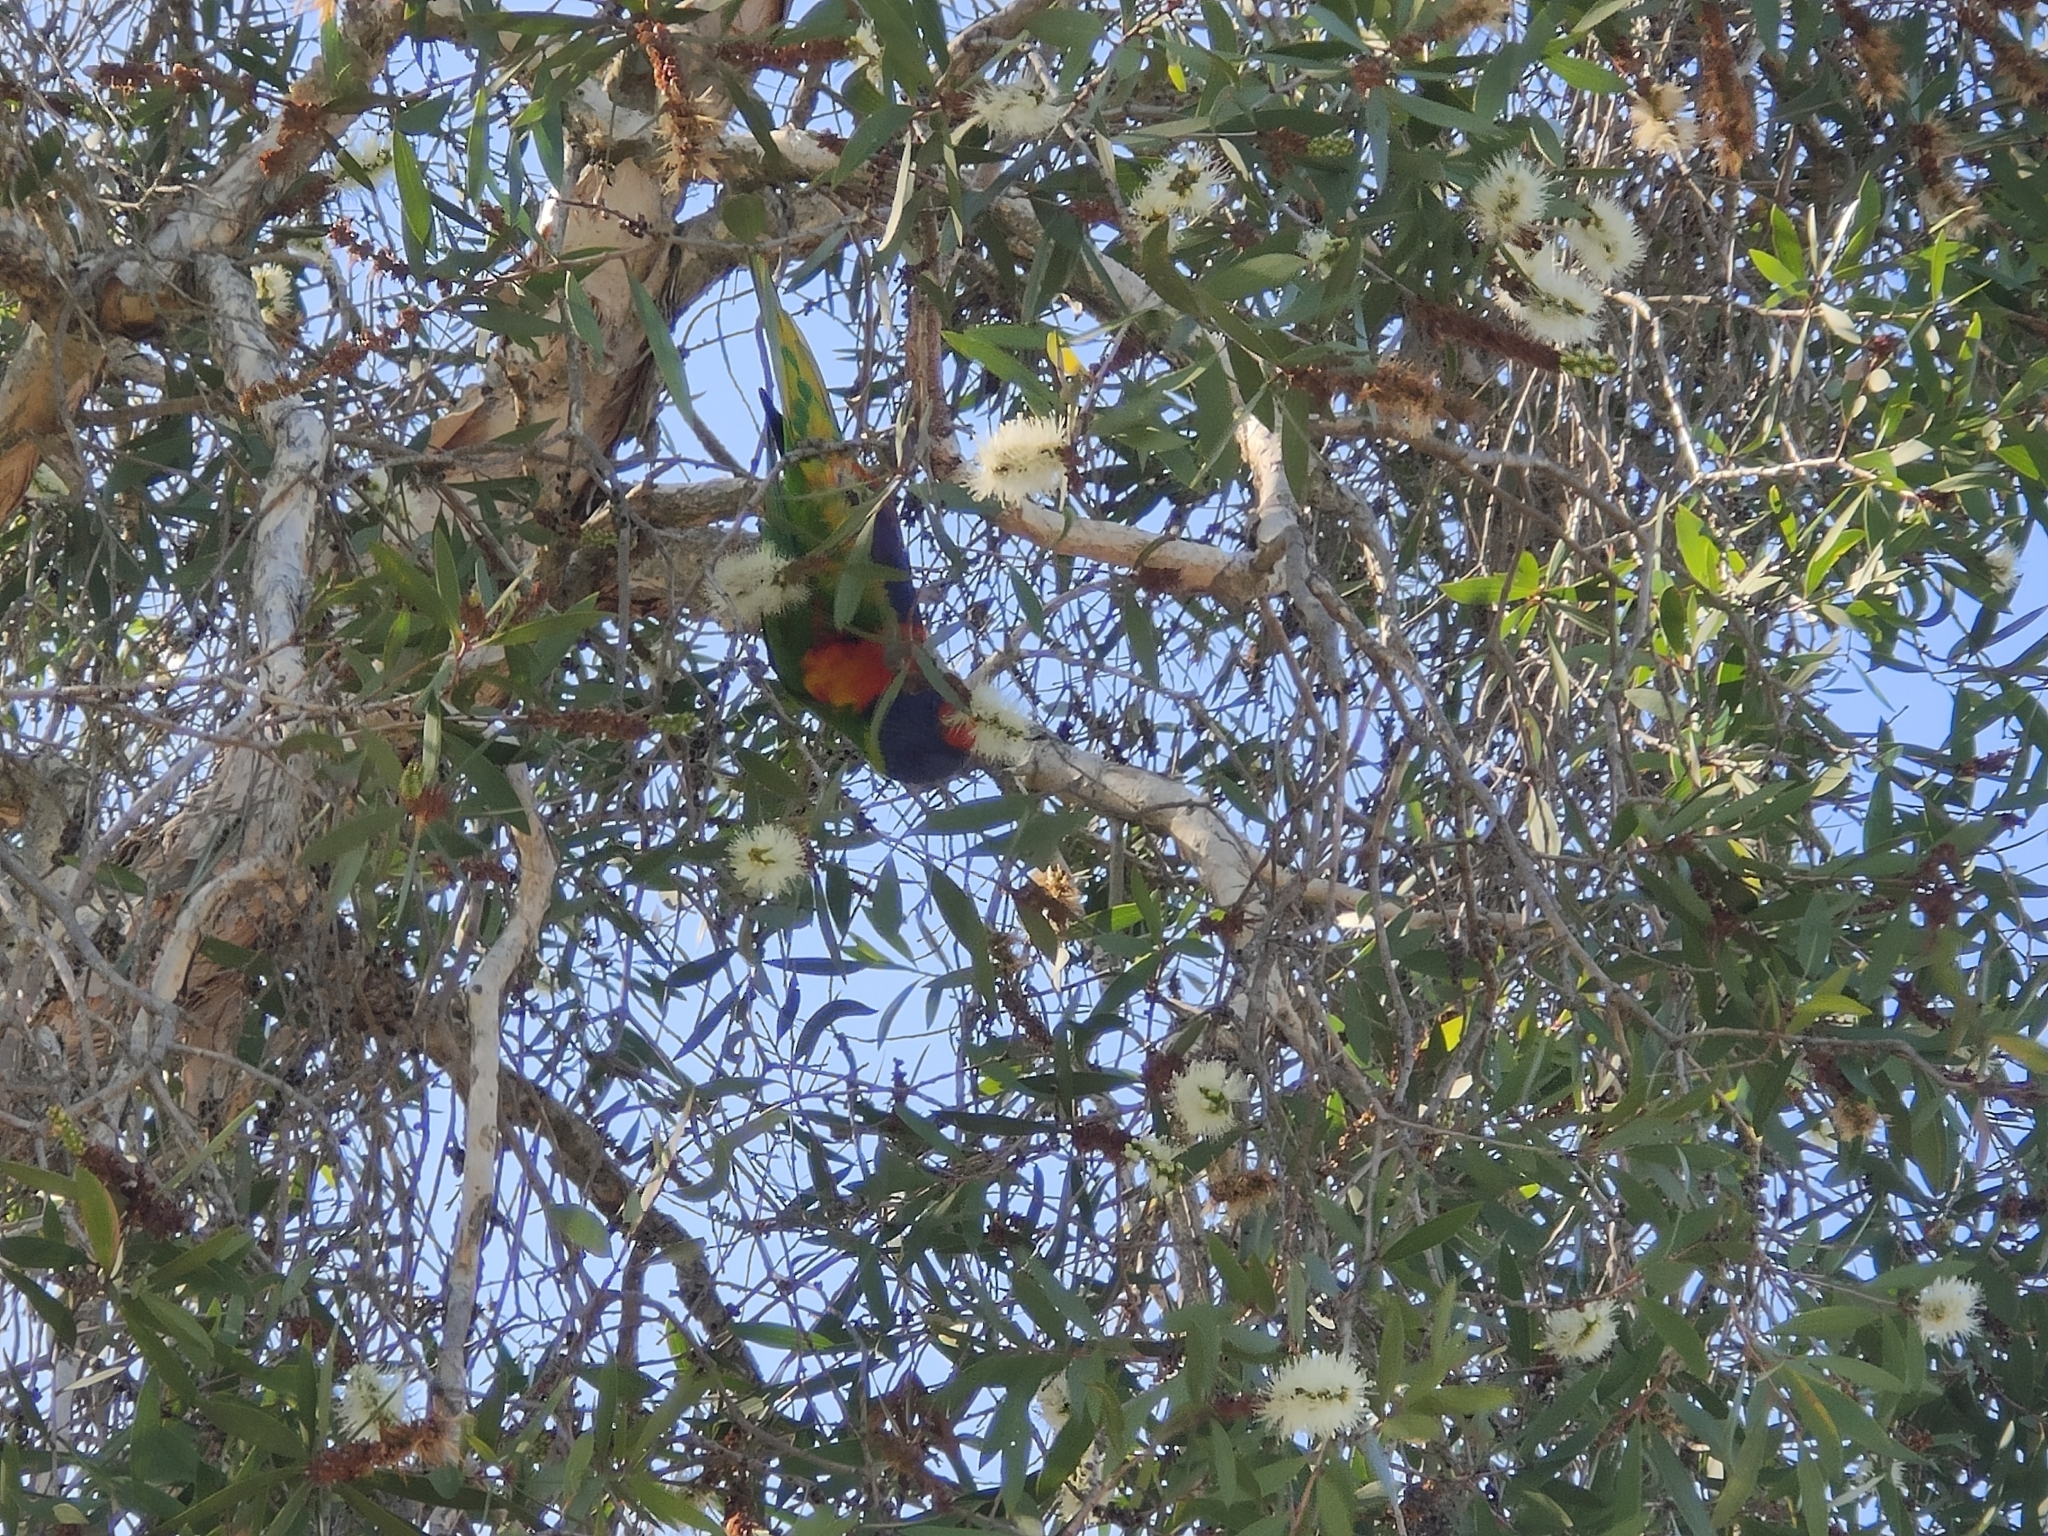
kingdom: Animalia
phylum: Chordata
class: Aves
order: Psittaciformes
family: Psittacidae
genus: Trichoglossus
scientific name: Trichoglossus haematodus
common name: Coconut lorikeet
